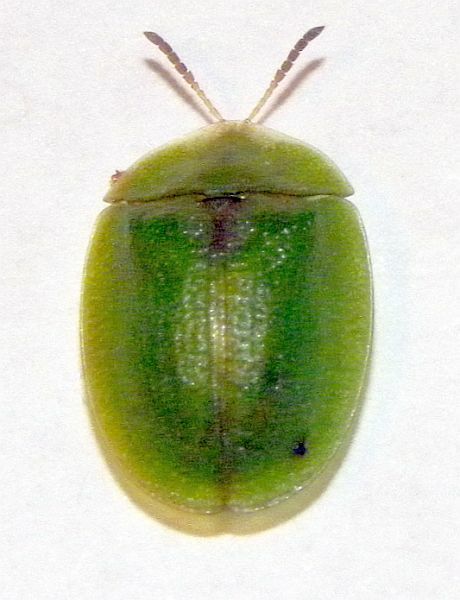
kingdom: Animalia
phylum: Arthropoda
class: Insecta
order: Coleoptera
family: Chrysomelidae
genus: Cassida
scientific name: Cassida rubiginosa
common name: Thistle tortoise beetle
